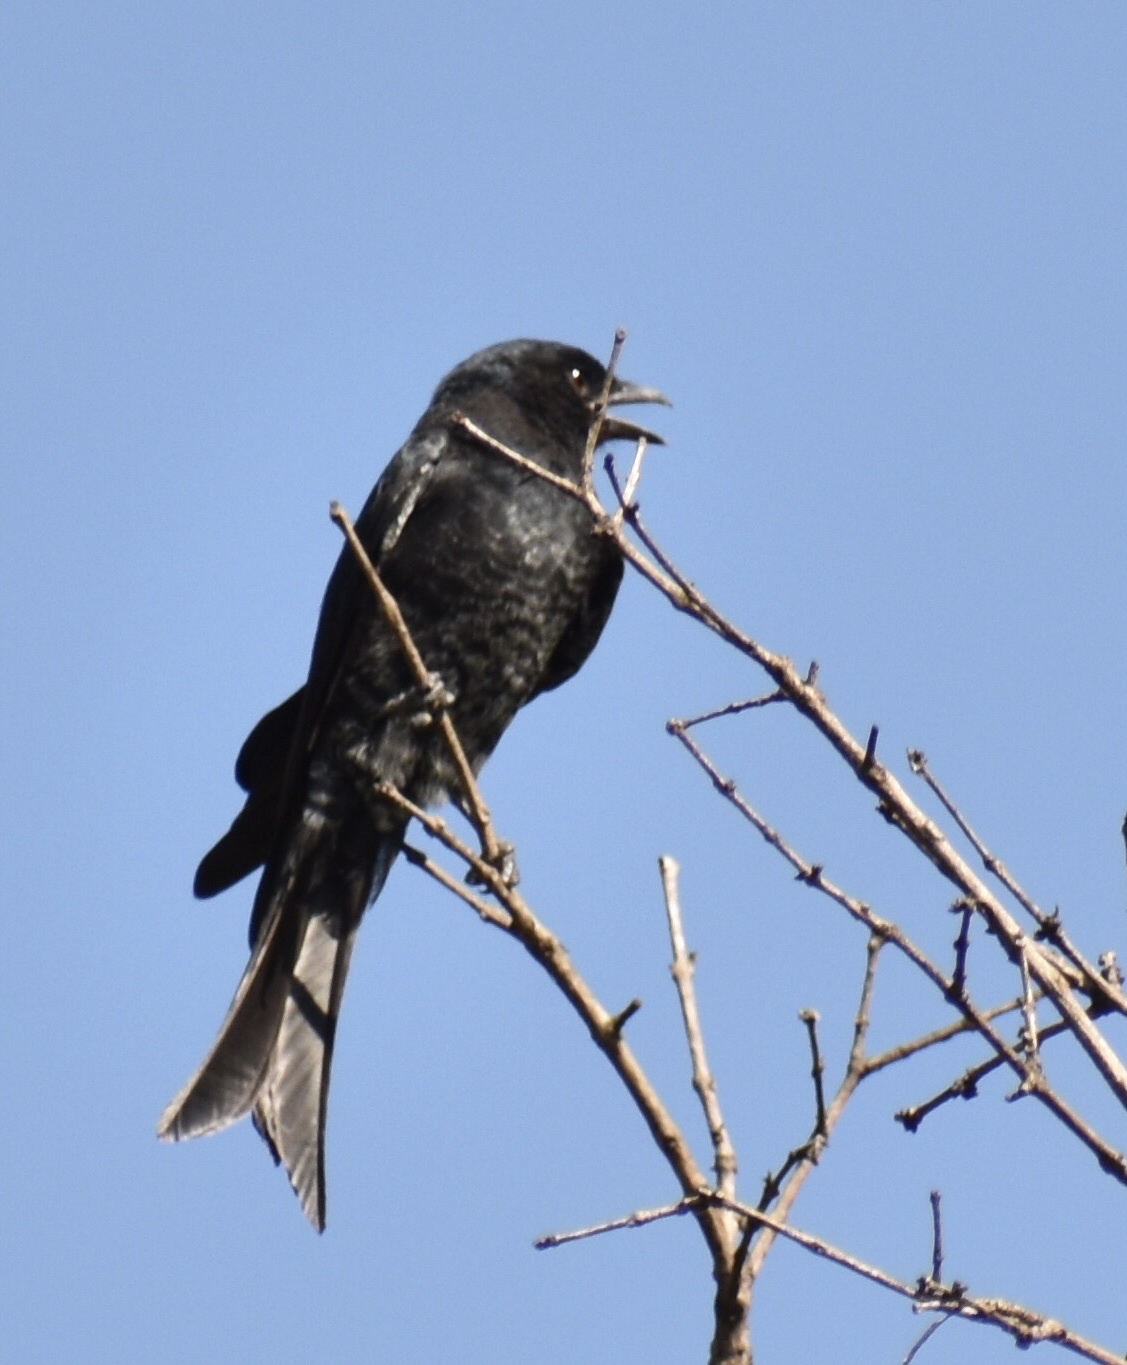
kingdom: Animalia
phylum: Chordata
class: Aves
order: Passeriformes
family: Dicruridae
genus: Dicrurus
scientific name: Dicrurus adsimilis
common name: Fork-tailed drongo
